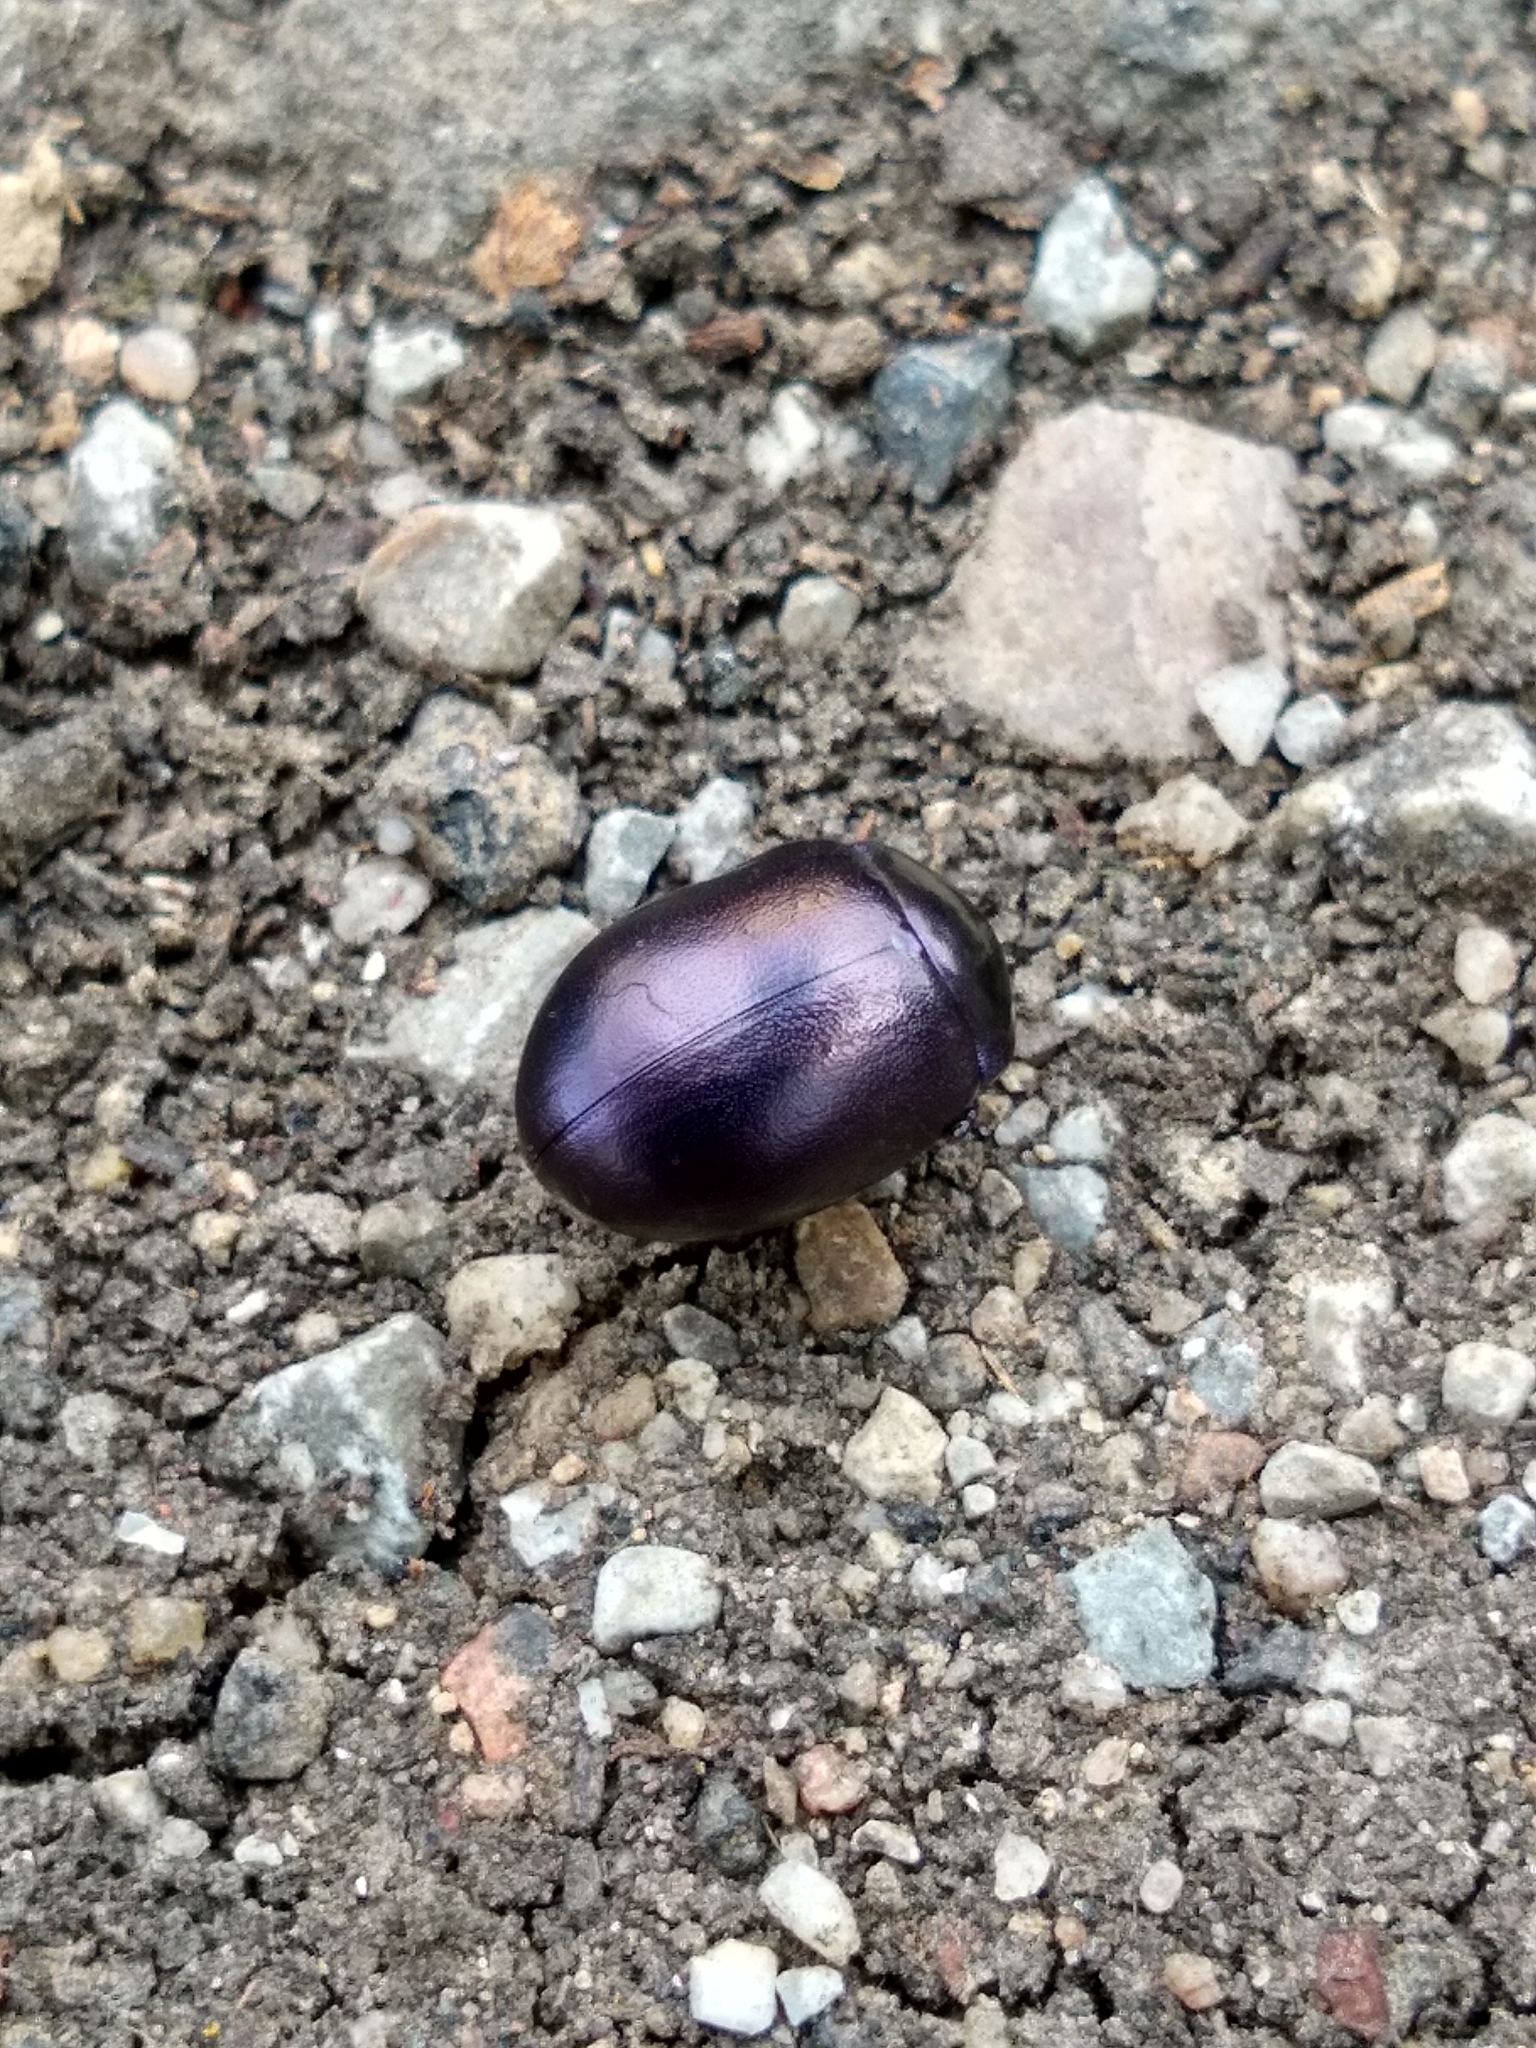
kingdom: Animalia
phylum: Arthropoda
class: Insecta
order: Coleoptera
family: Chrysomelidae
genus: Chrysolina
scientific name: Chrysolina sturmi
